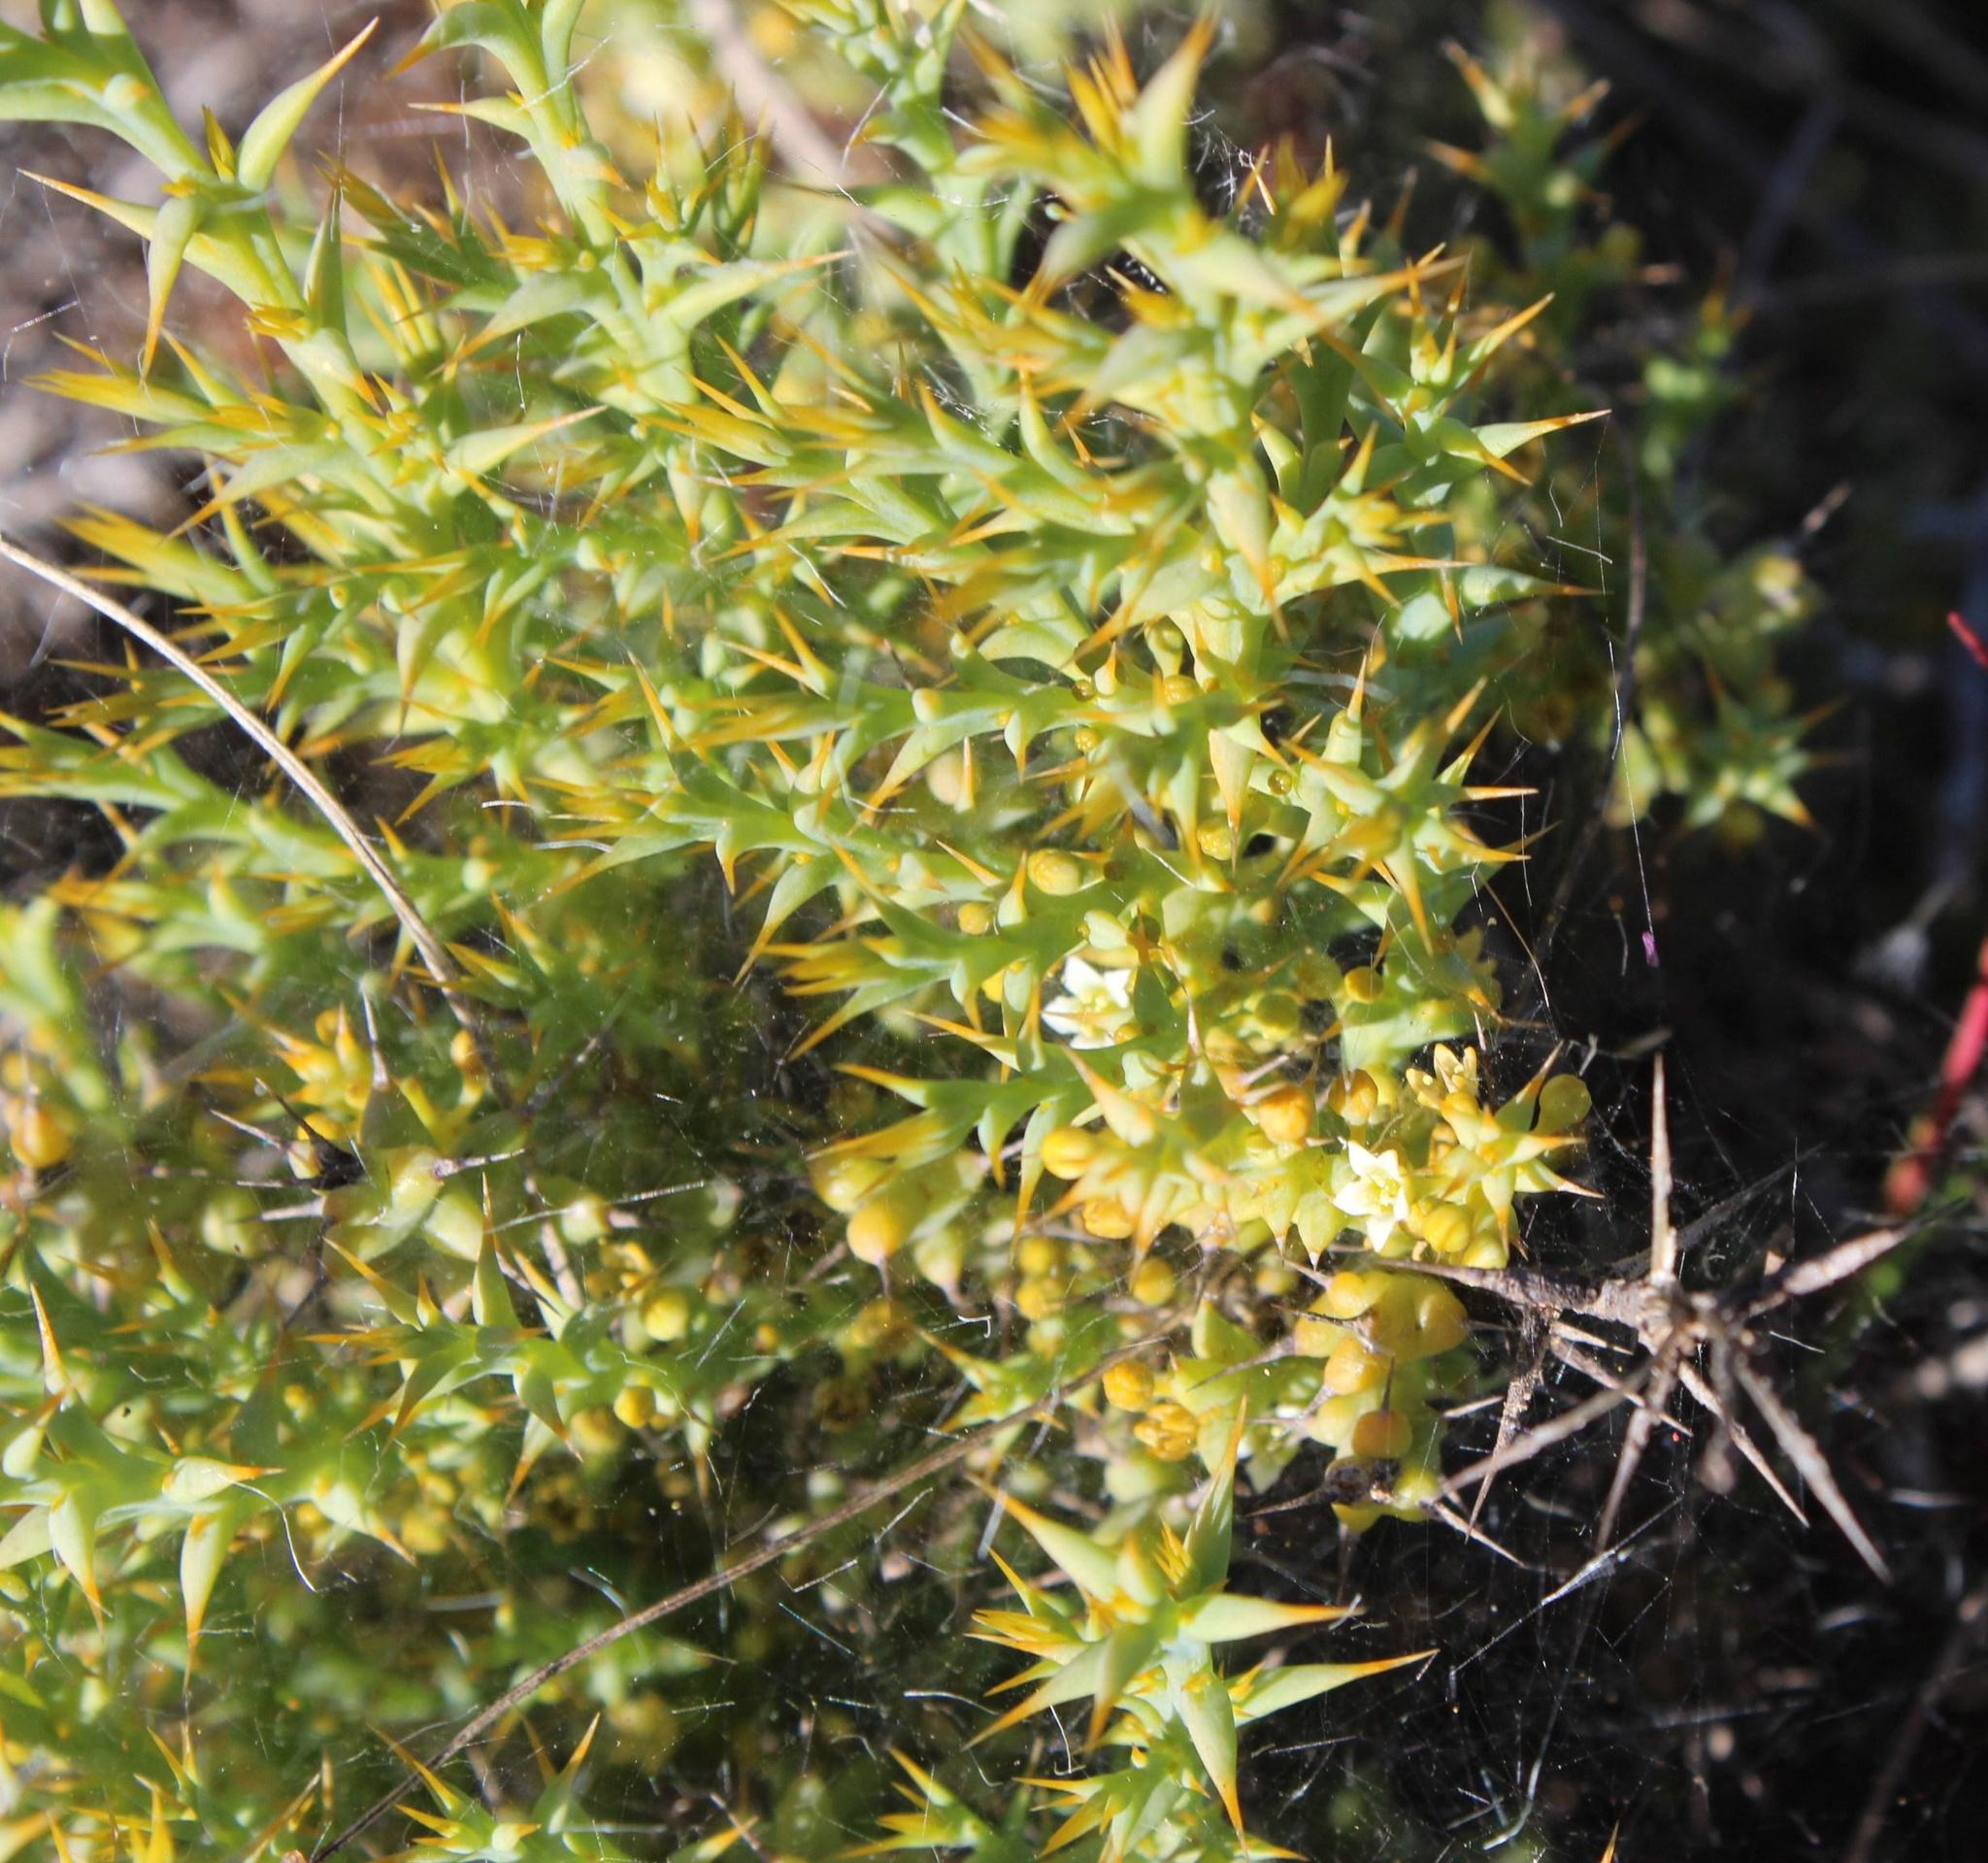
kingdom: Plantae
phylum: Tracheophyta
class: Magnoliopsida
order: Santalales
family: Thesiaceae
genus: Thesium
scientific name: Thesium spinosum
